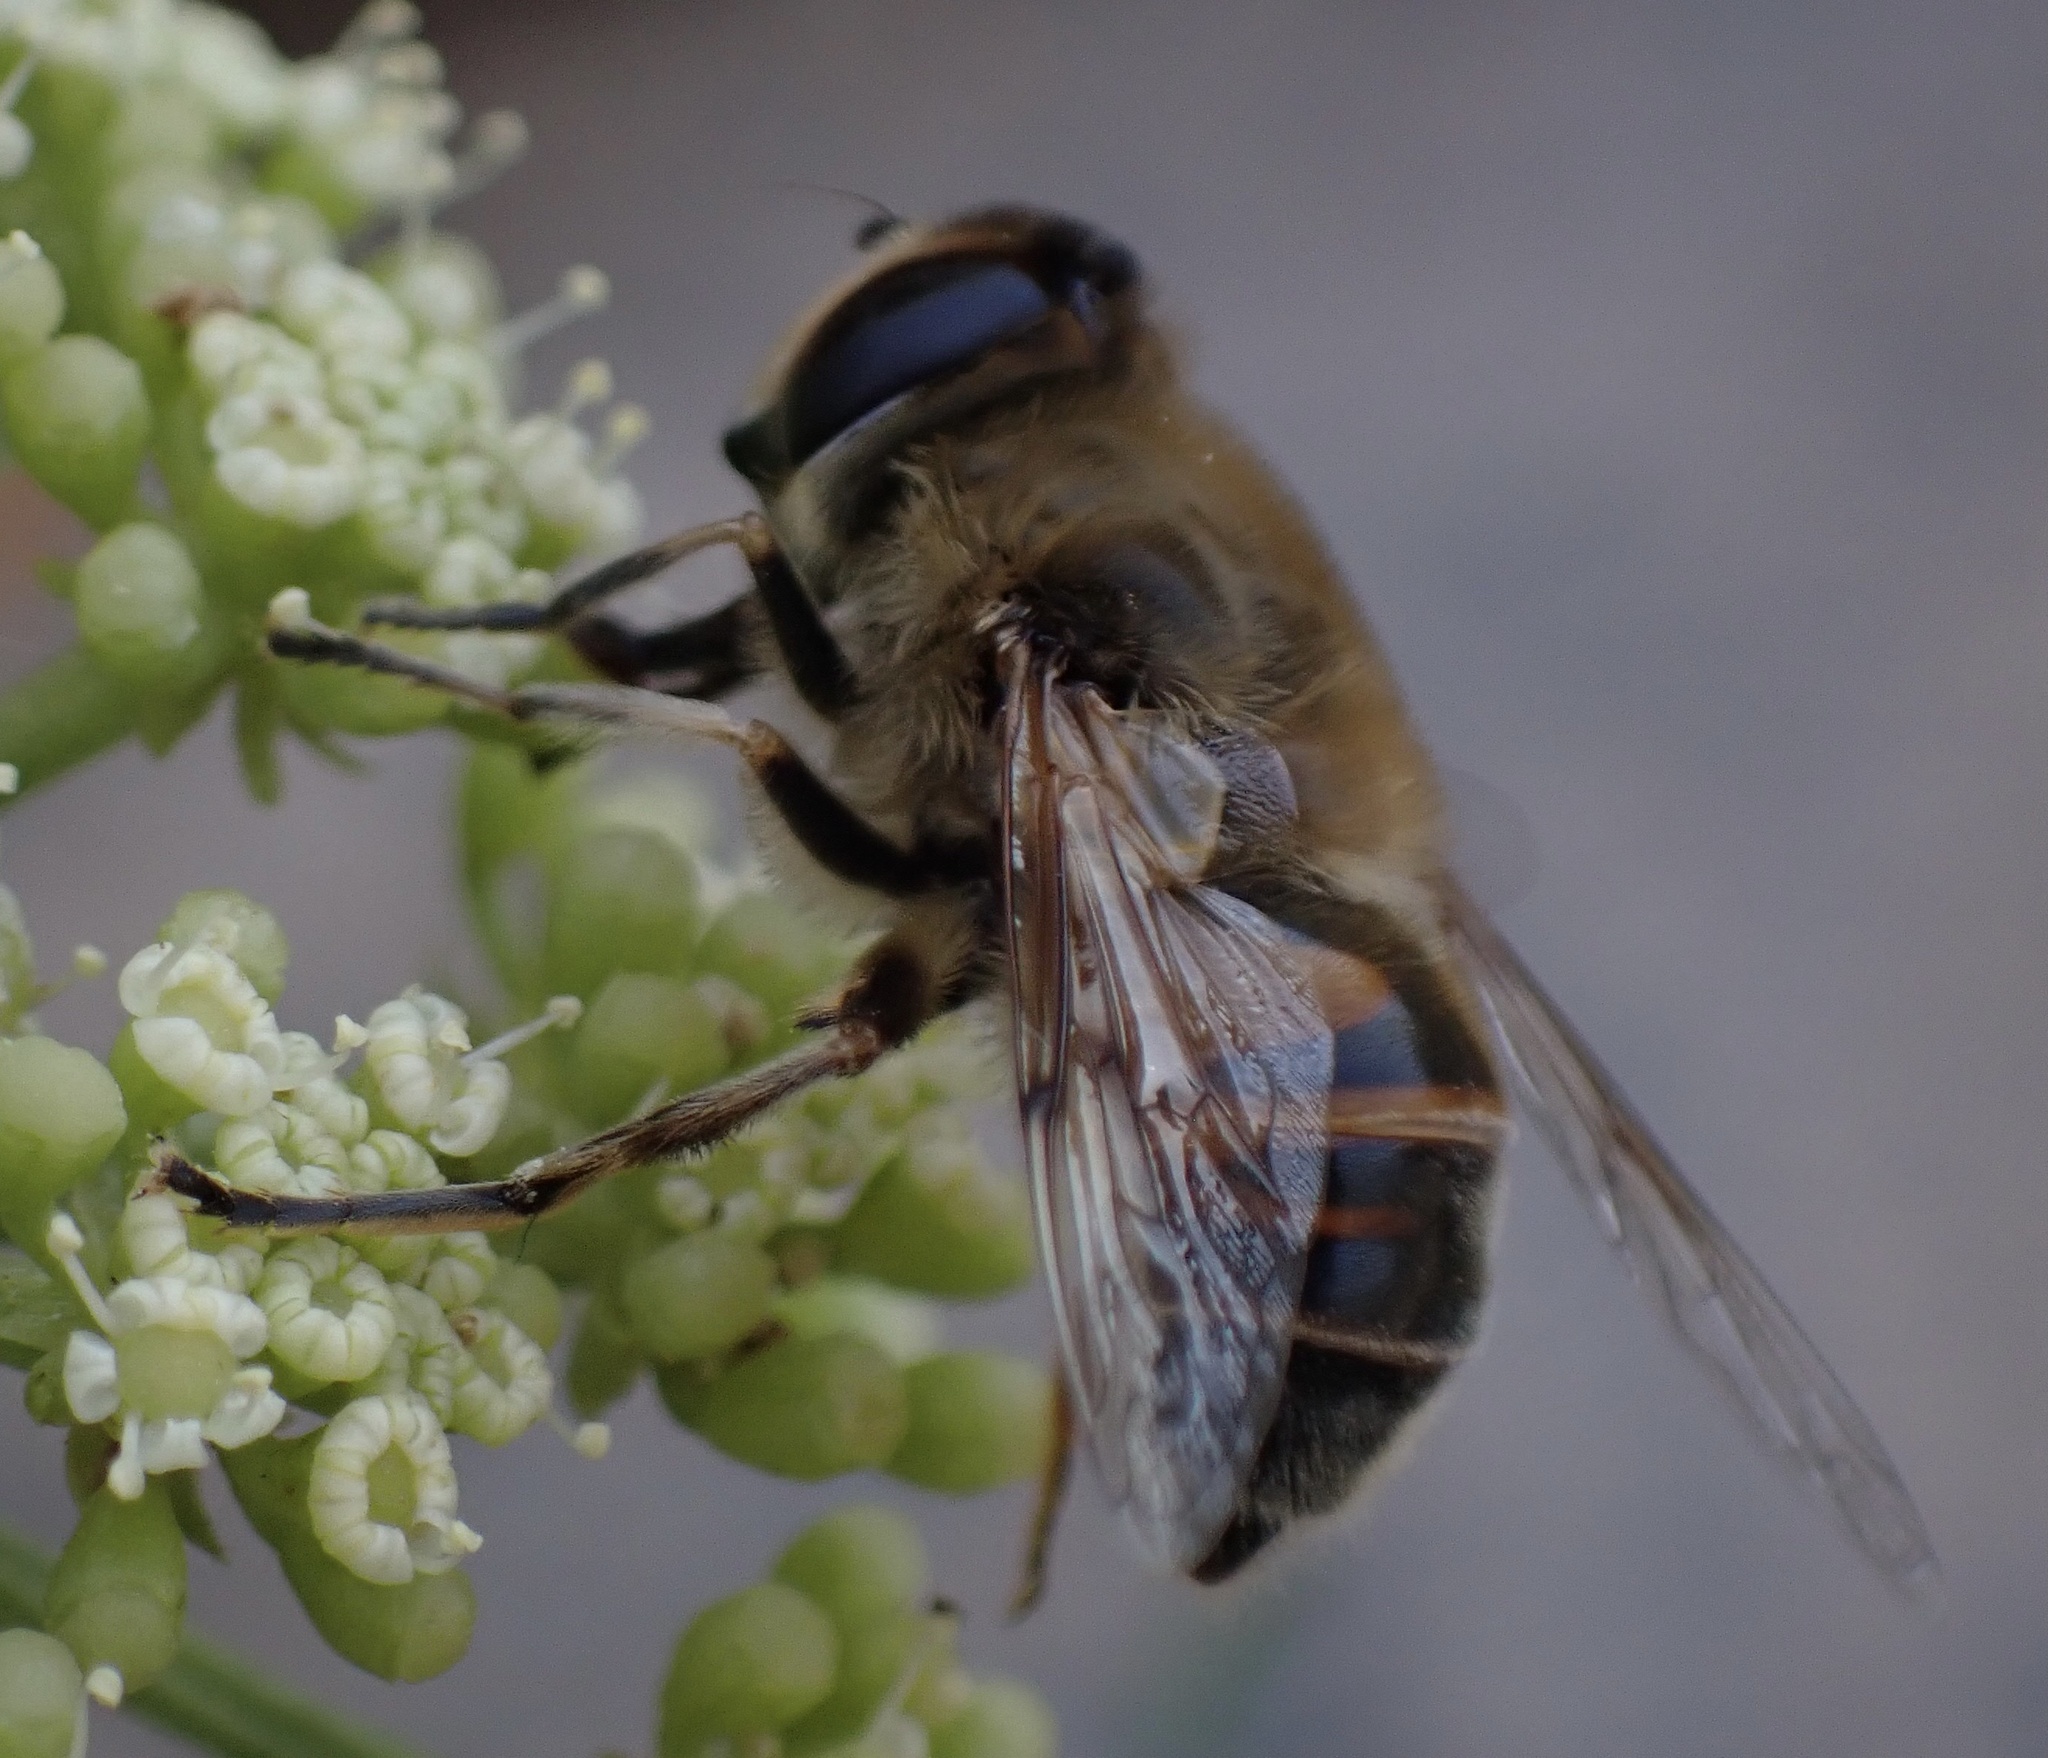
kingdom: Animalia
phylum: Arthropoda
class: Insecta
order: Diptera
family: Syrphidae
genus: Eristalis
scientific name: Eristalis tenax
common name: Drone fly
